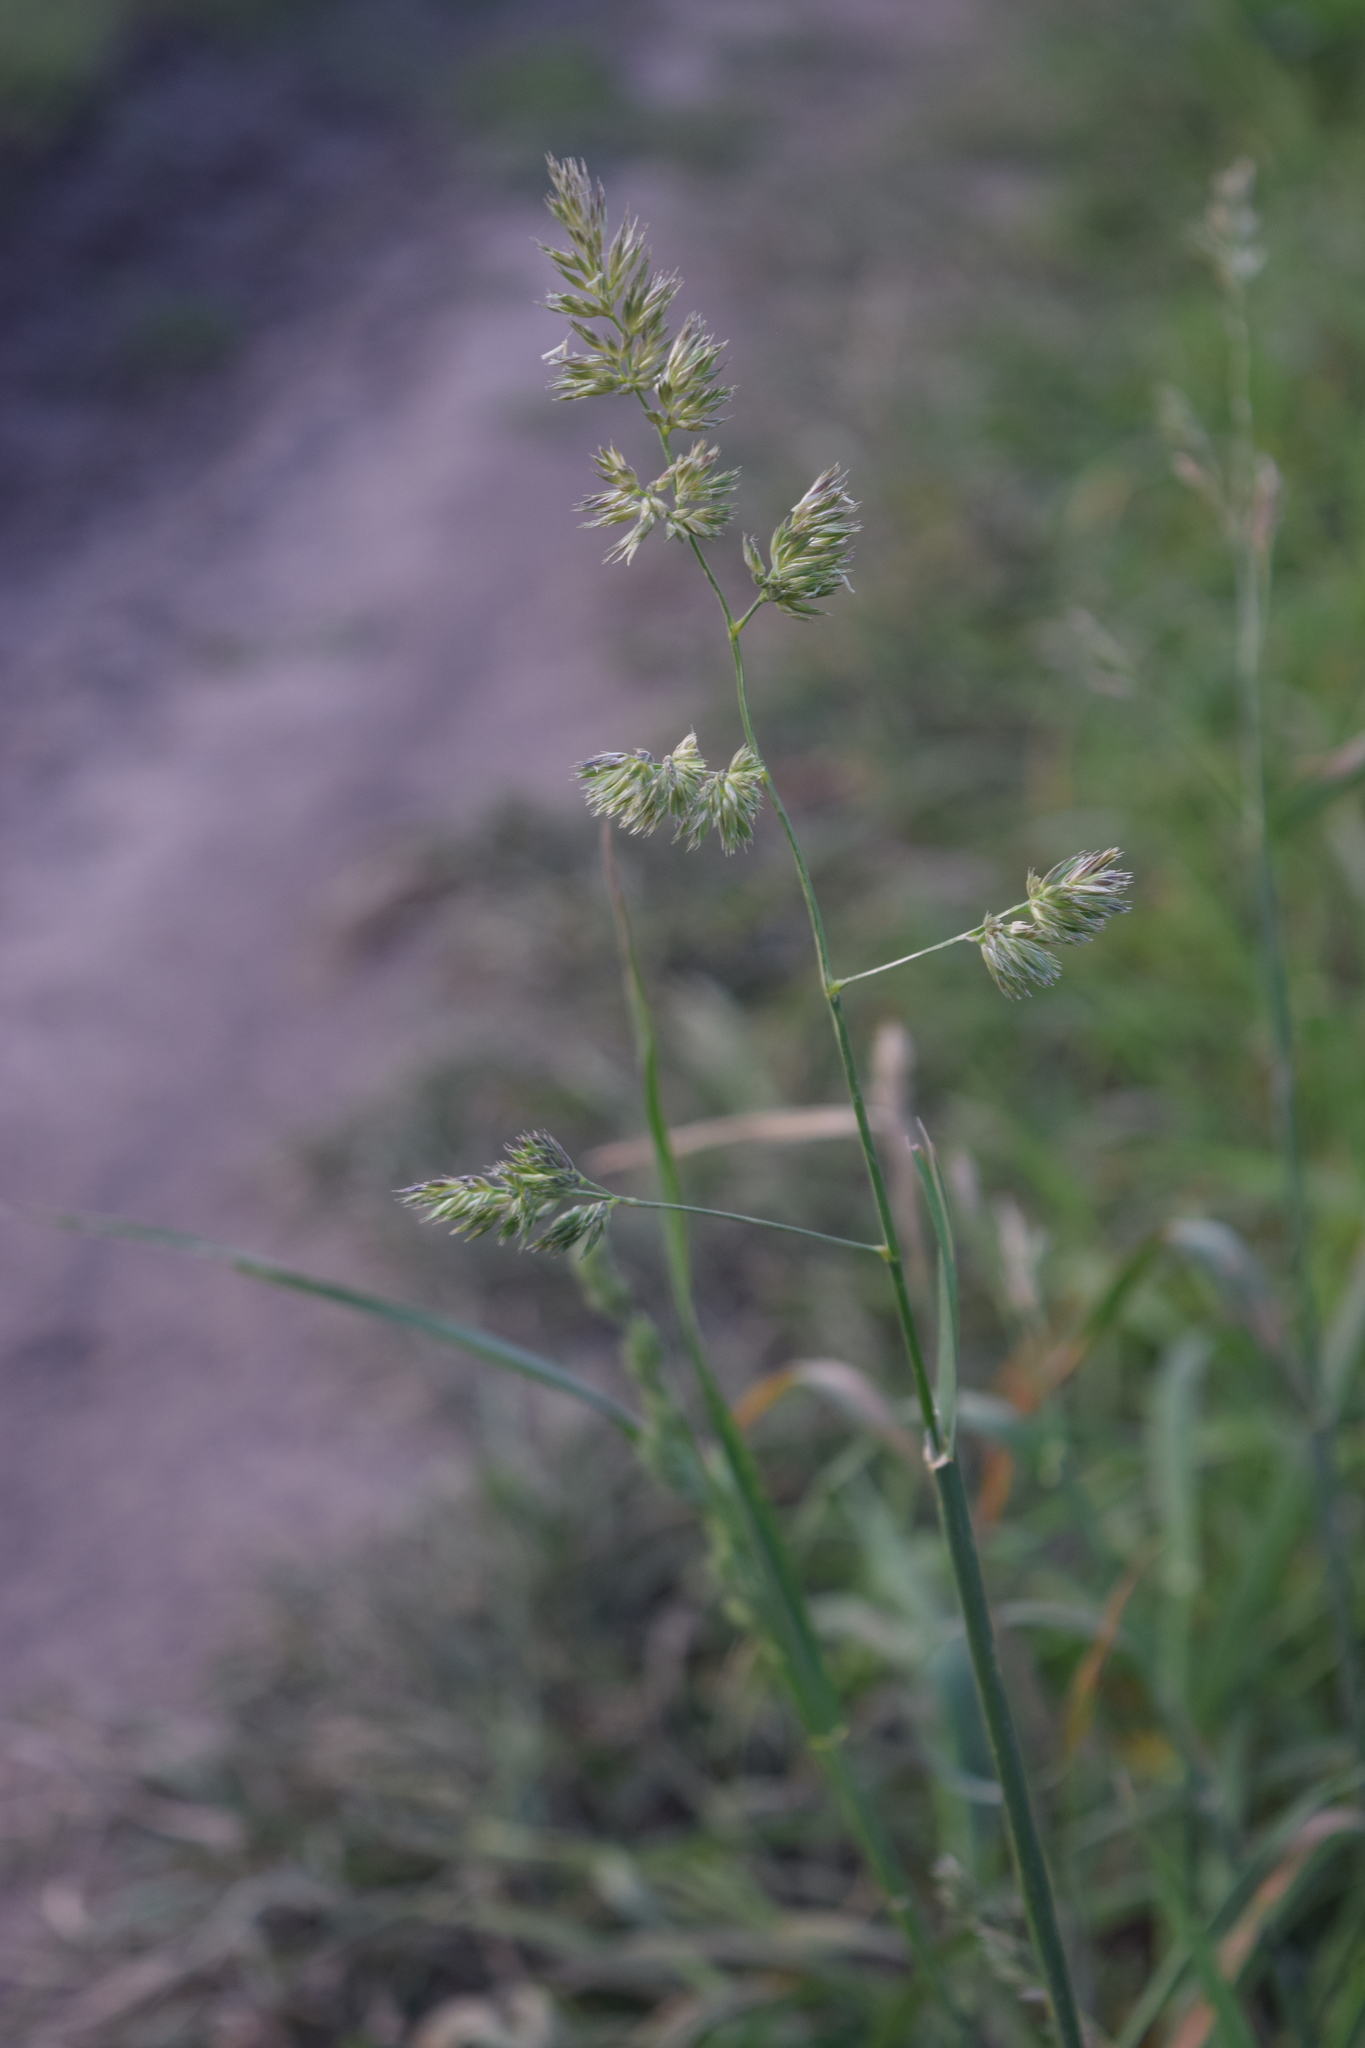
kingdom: Plantae
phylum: Tracheophyta
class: Liliopsida
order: Poales
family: Poaceae
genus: Dactylis
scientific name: Dactylis glomerata
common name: Orchardgrass
